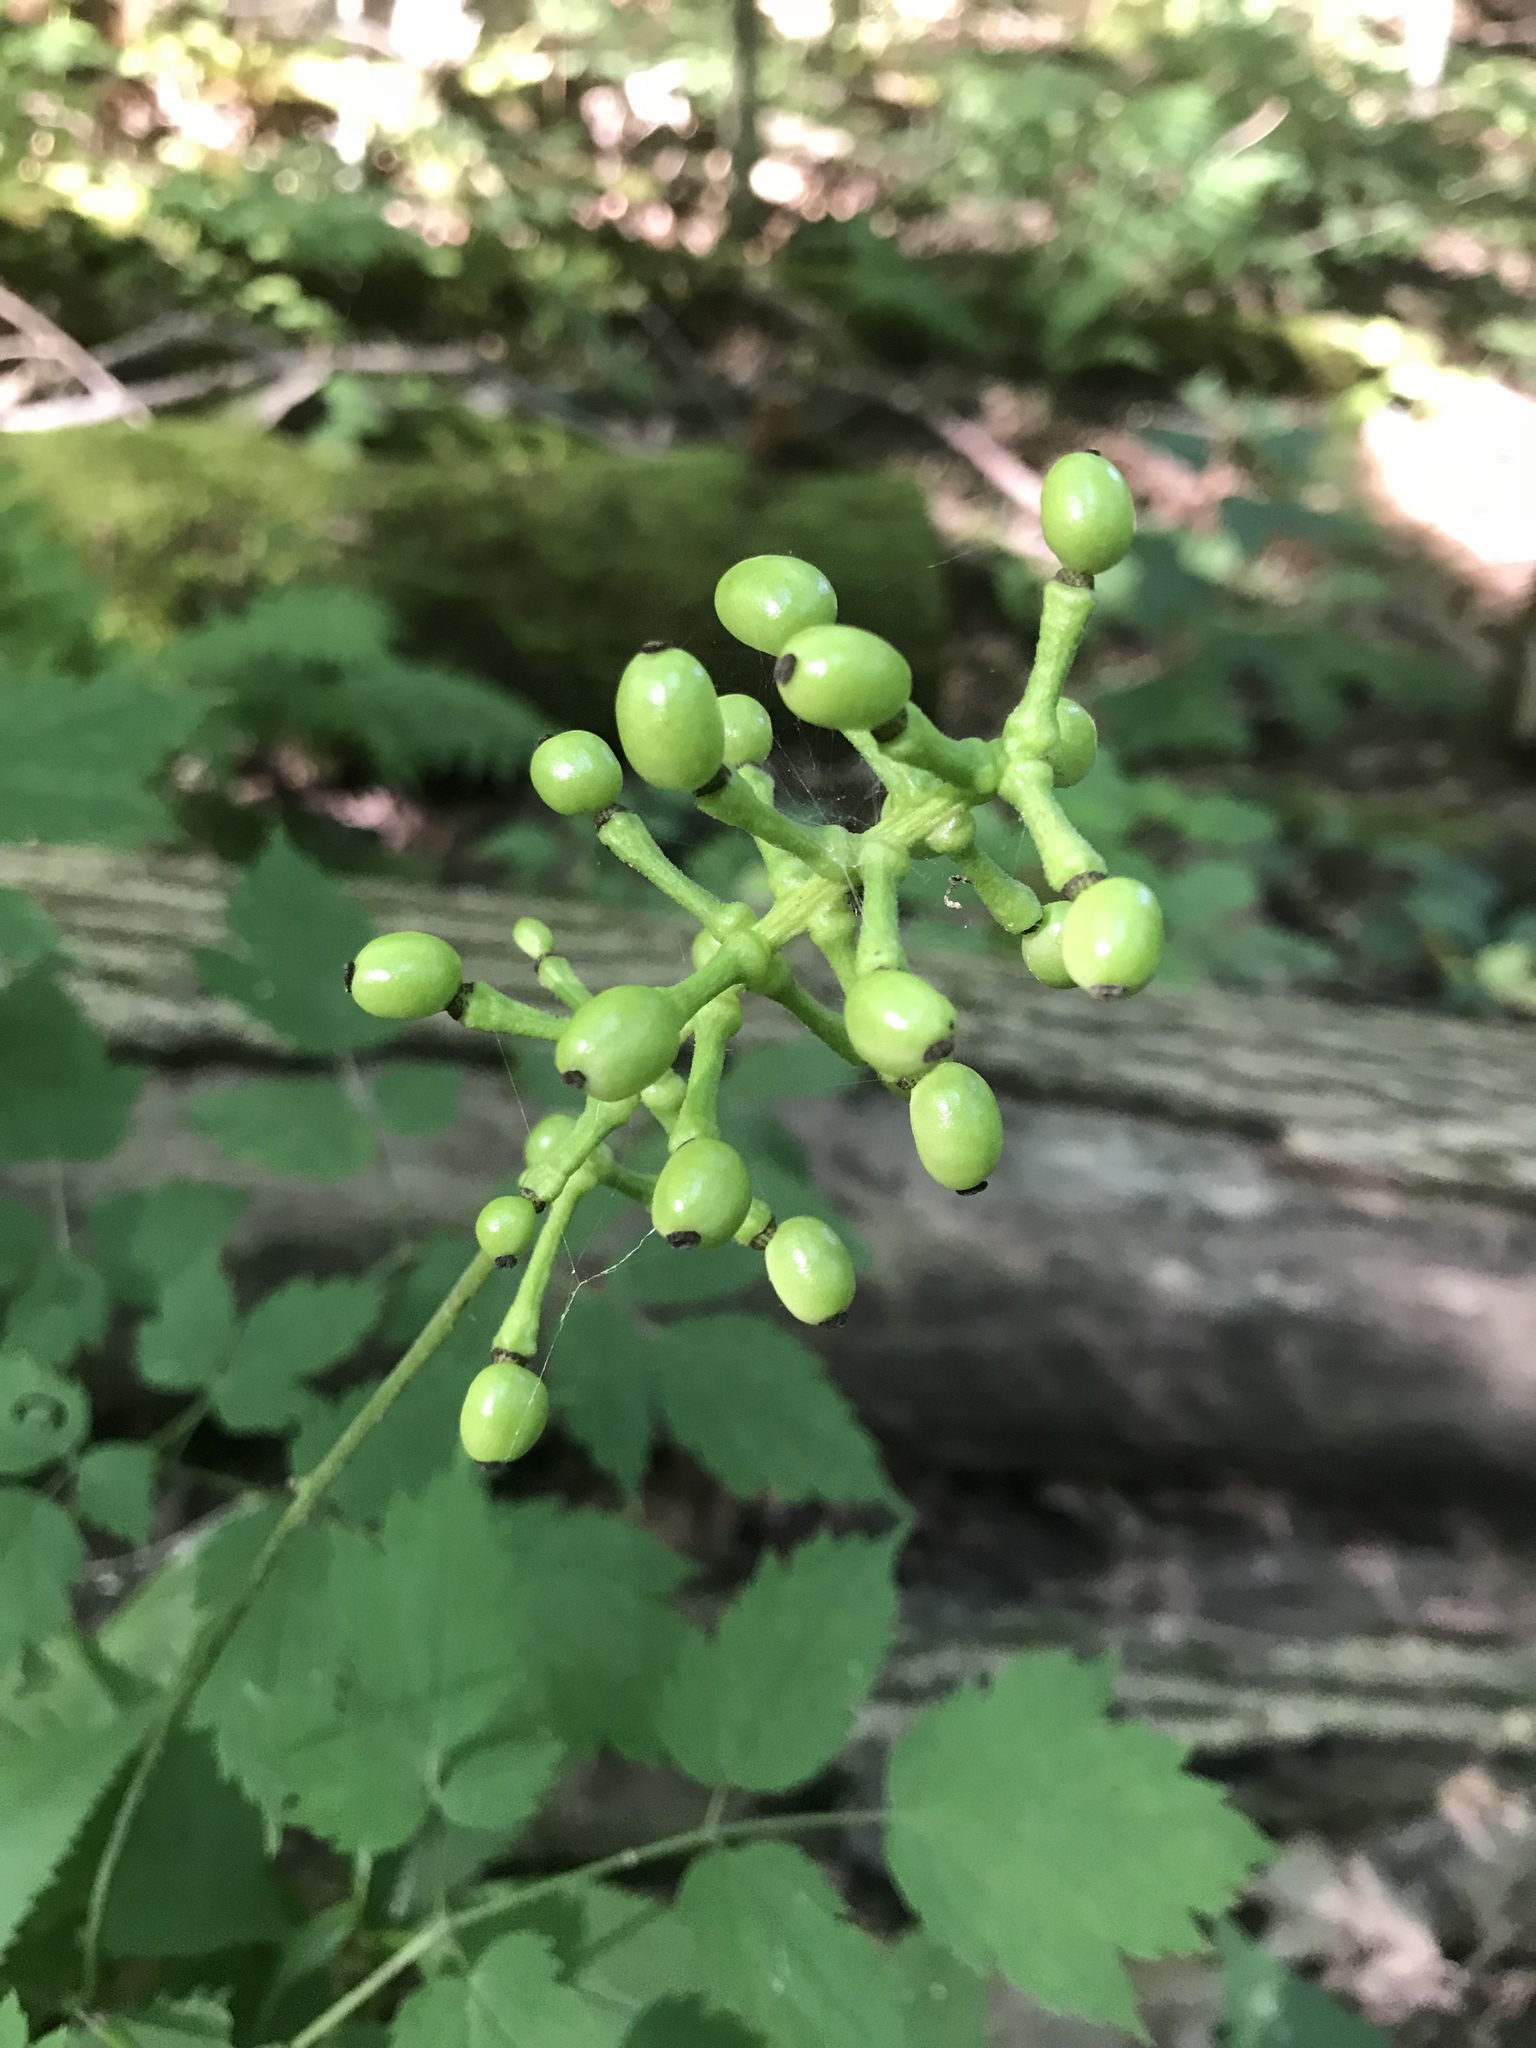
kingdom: Plantae
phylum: Tracheophyta
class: Magnoliopsida
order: Ranunculales
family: Ranunculaceae
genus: Actaea
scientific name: Actaea pachypoda
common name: Doll's-eyes
